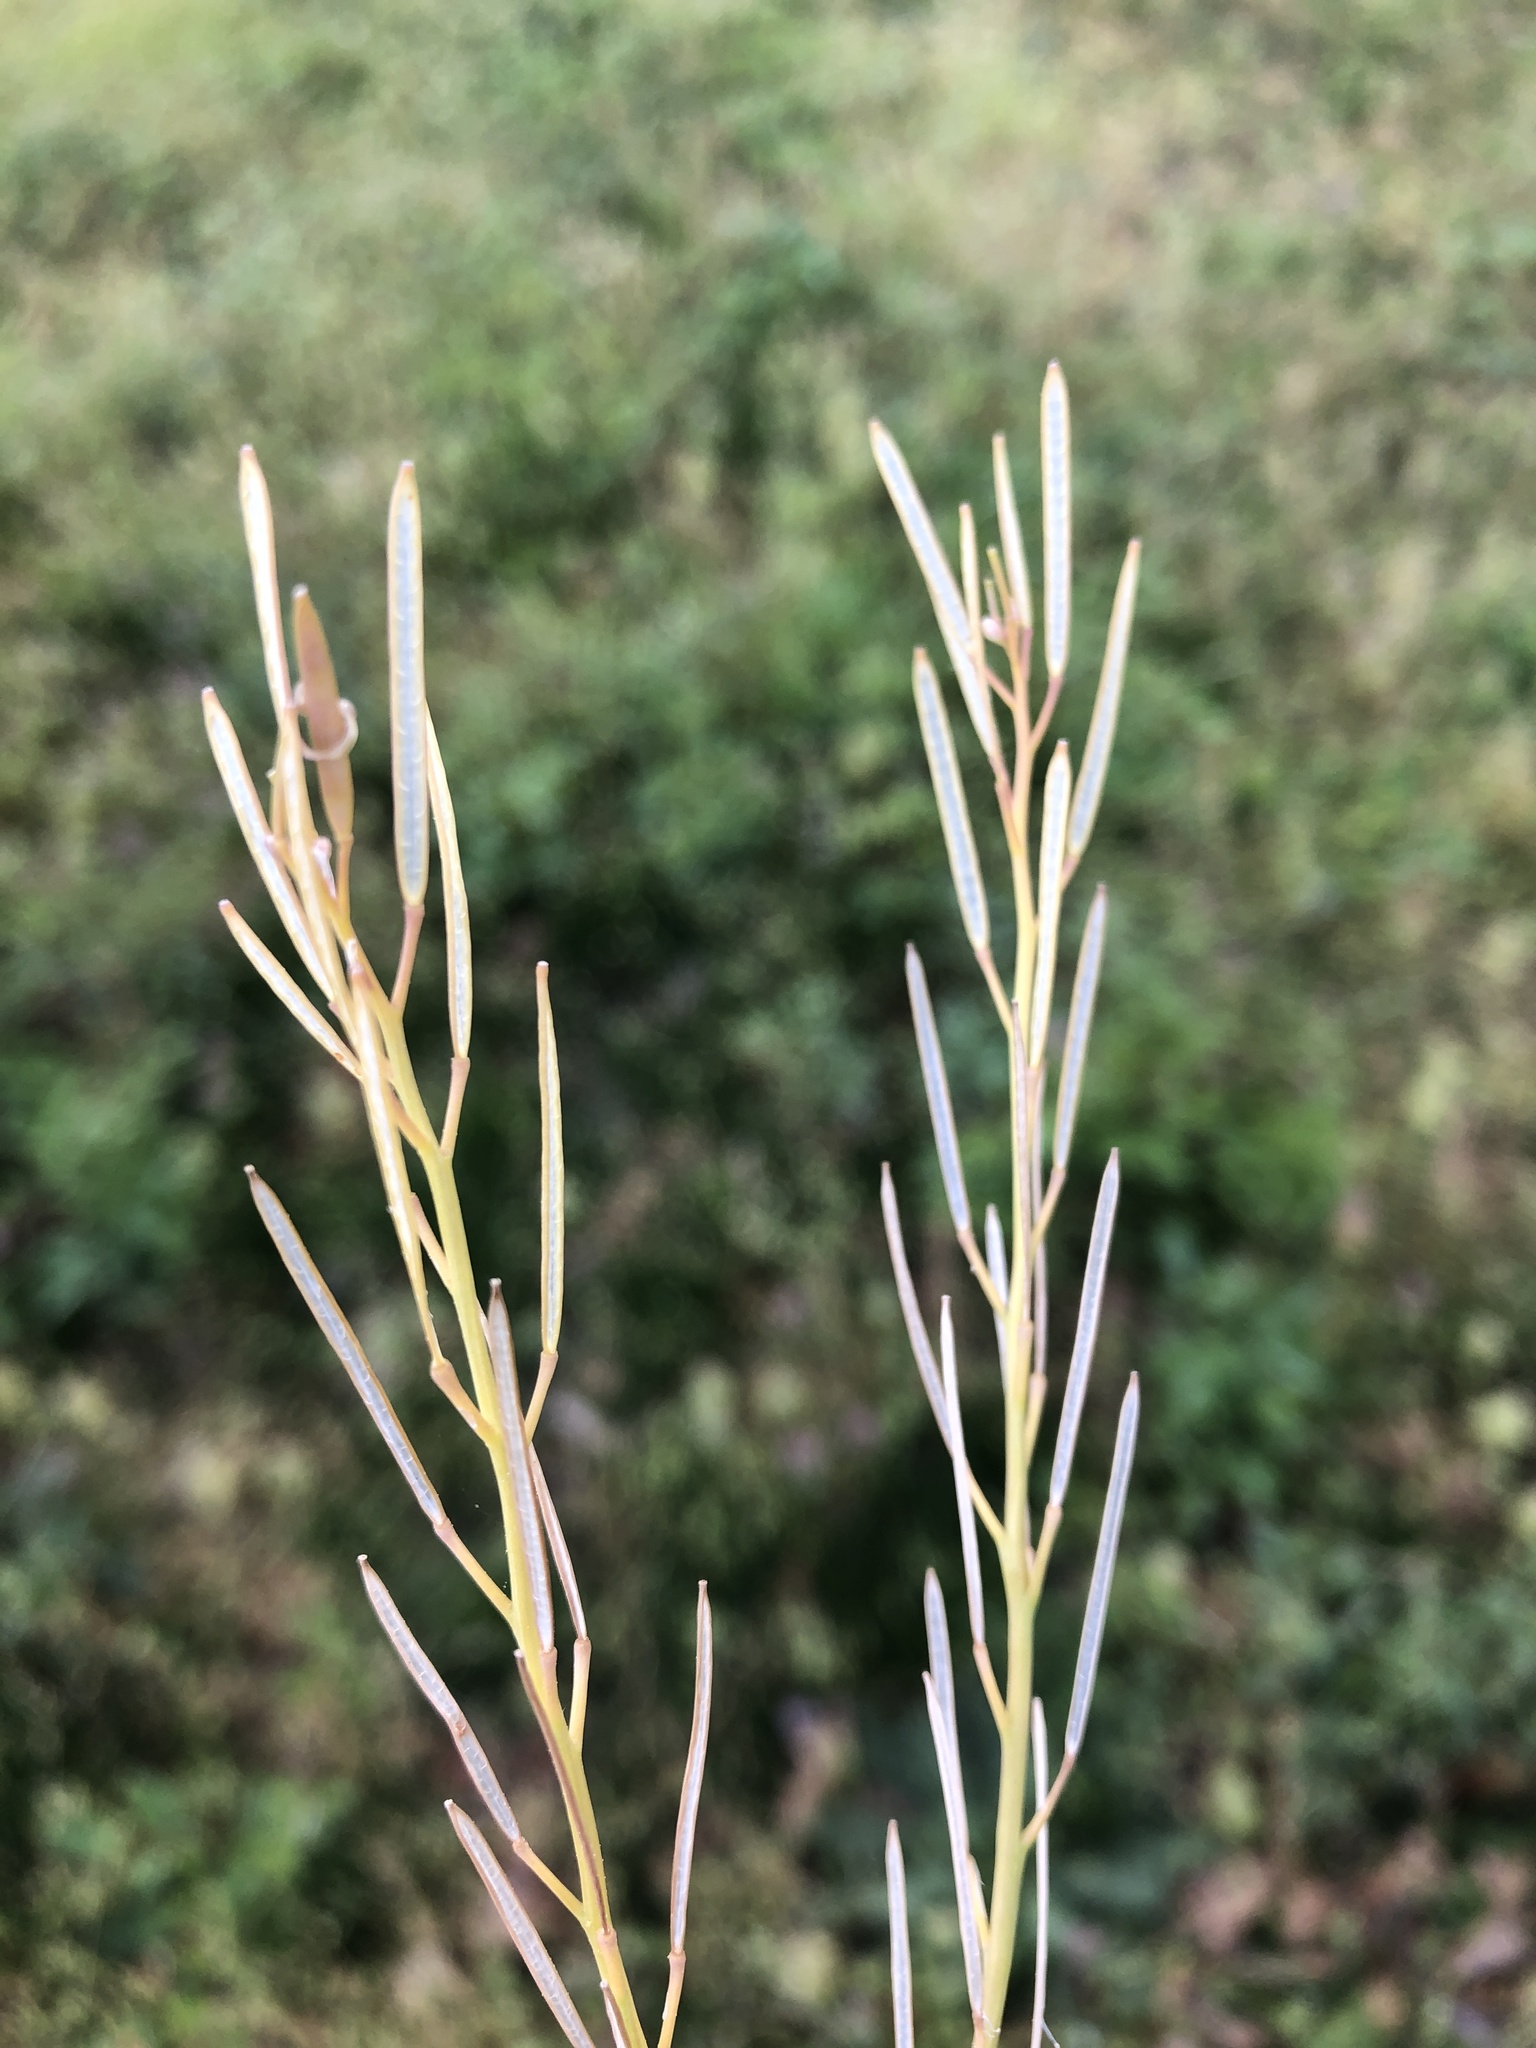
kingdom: Plantae
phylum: Tracheophyta
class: Magnoliopsida
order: Brassicales
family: Brassicaceae
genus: Cardamine
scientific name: Cardamine hirsuta
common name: Hairy bittercress
